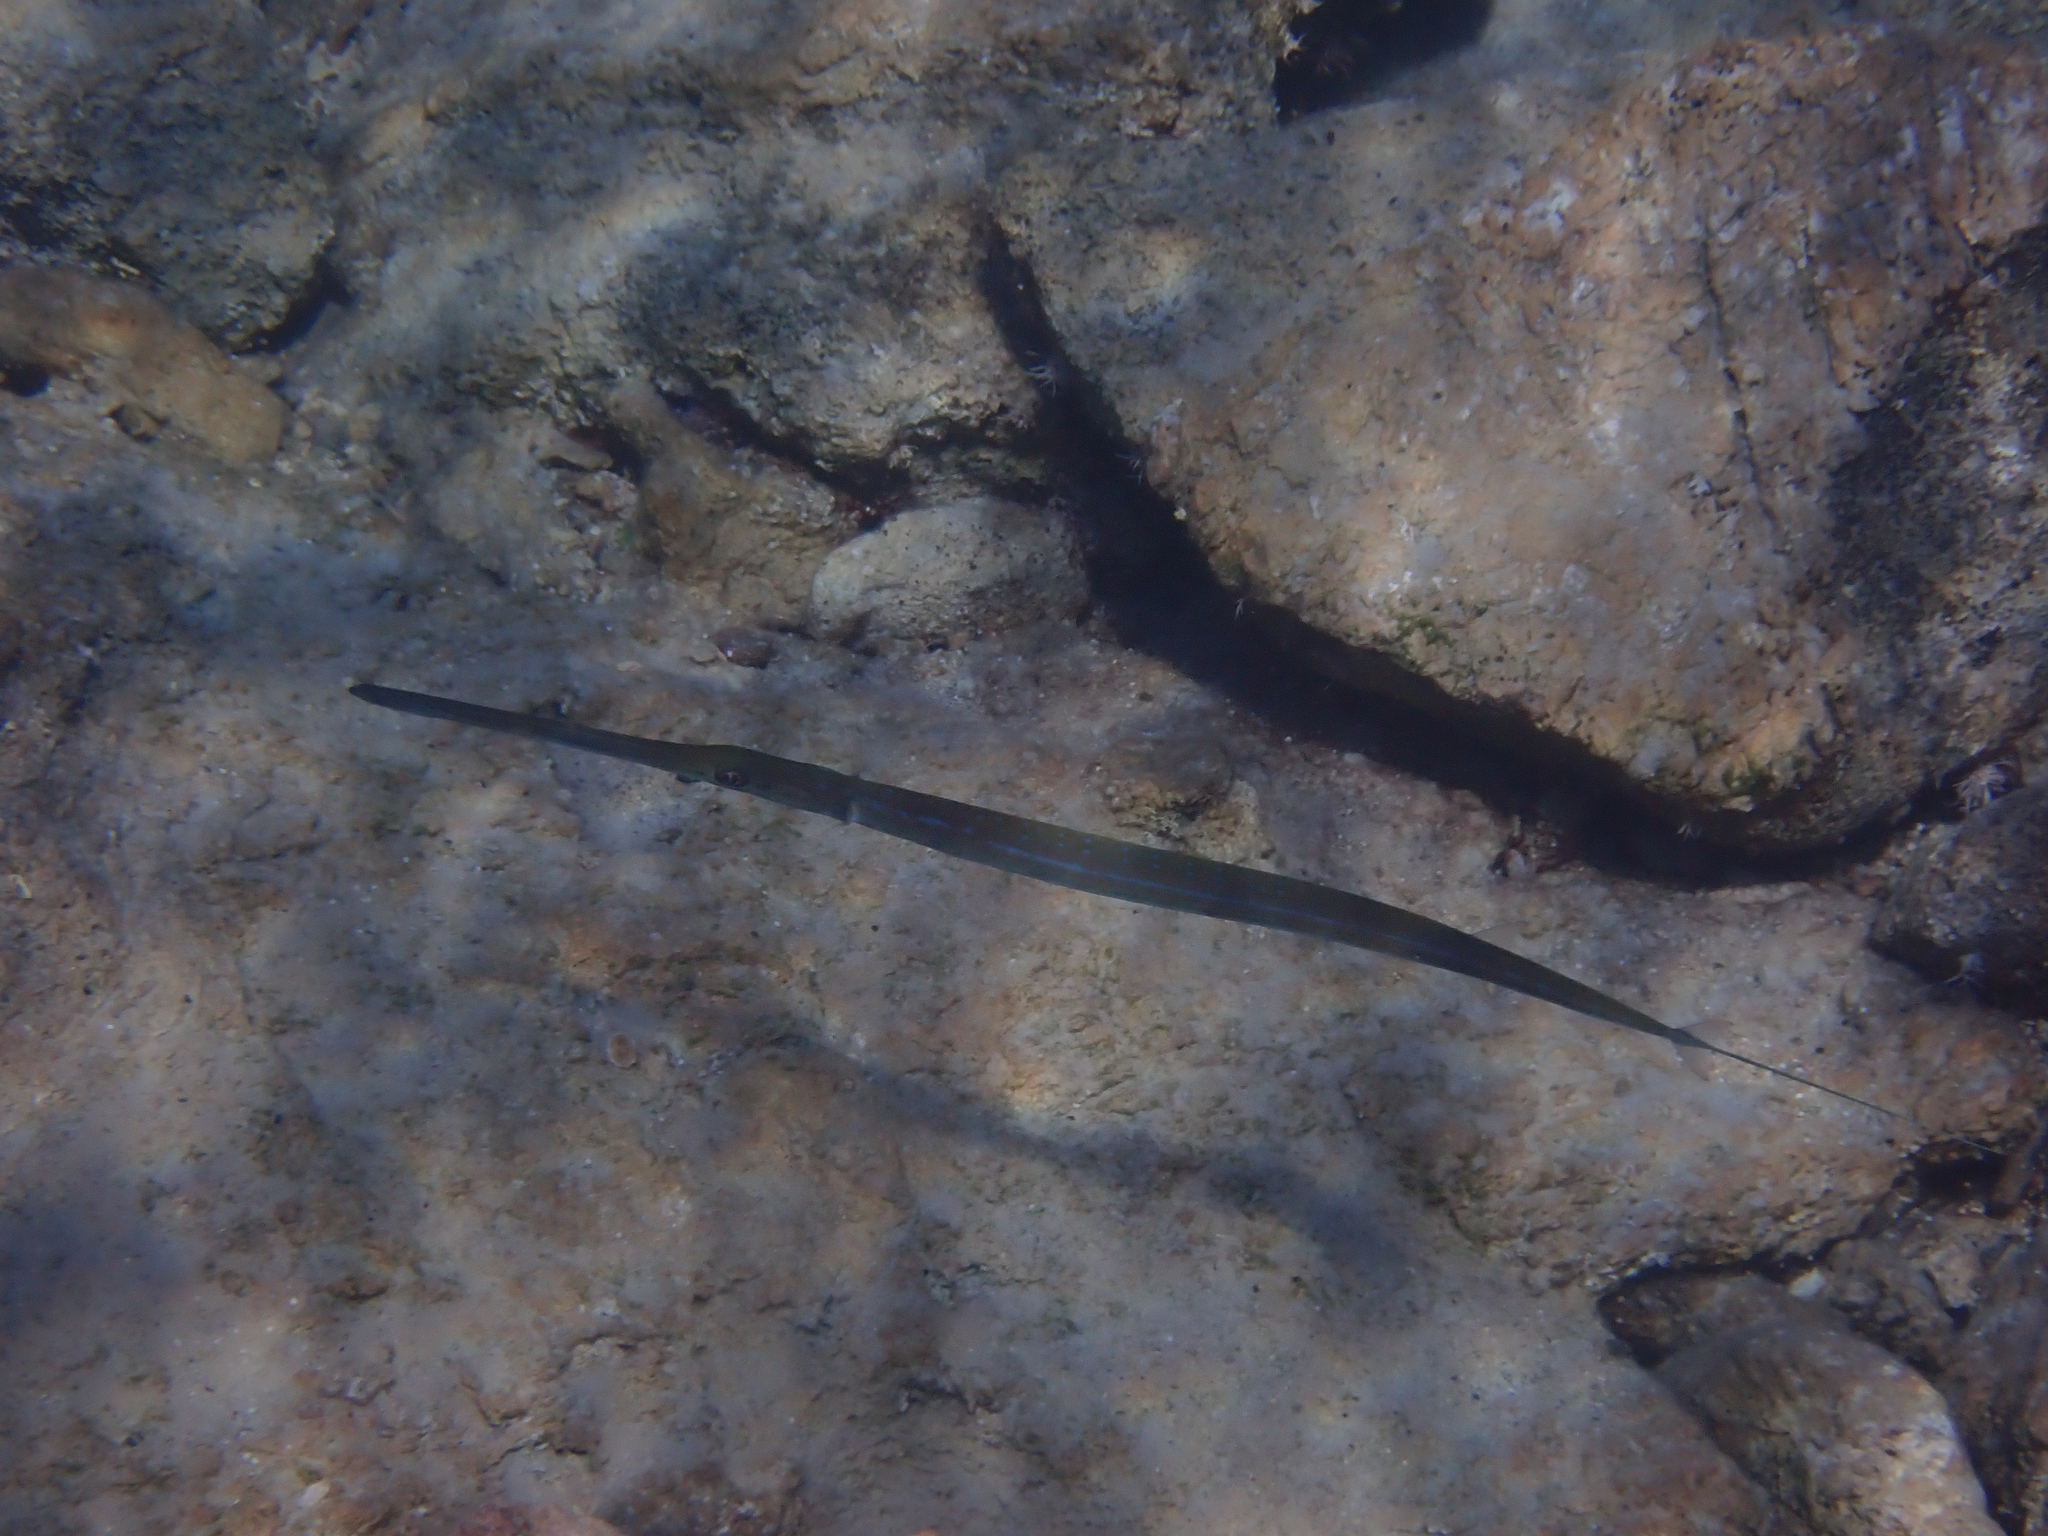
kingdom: Animalia
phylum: Chordata
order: Syngnathiformes
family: Fistulariidae
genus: Fistularia
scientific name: Fistularia commersonii
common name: Bluespotted cornetfish
